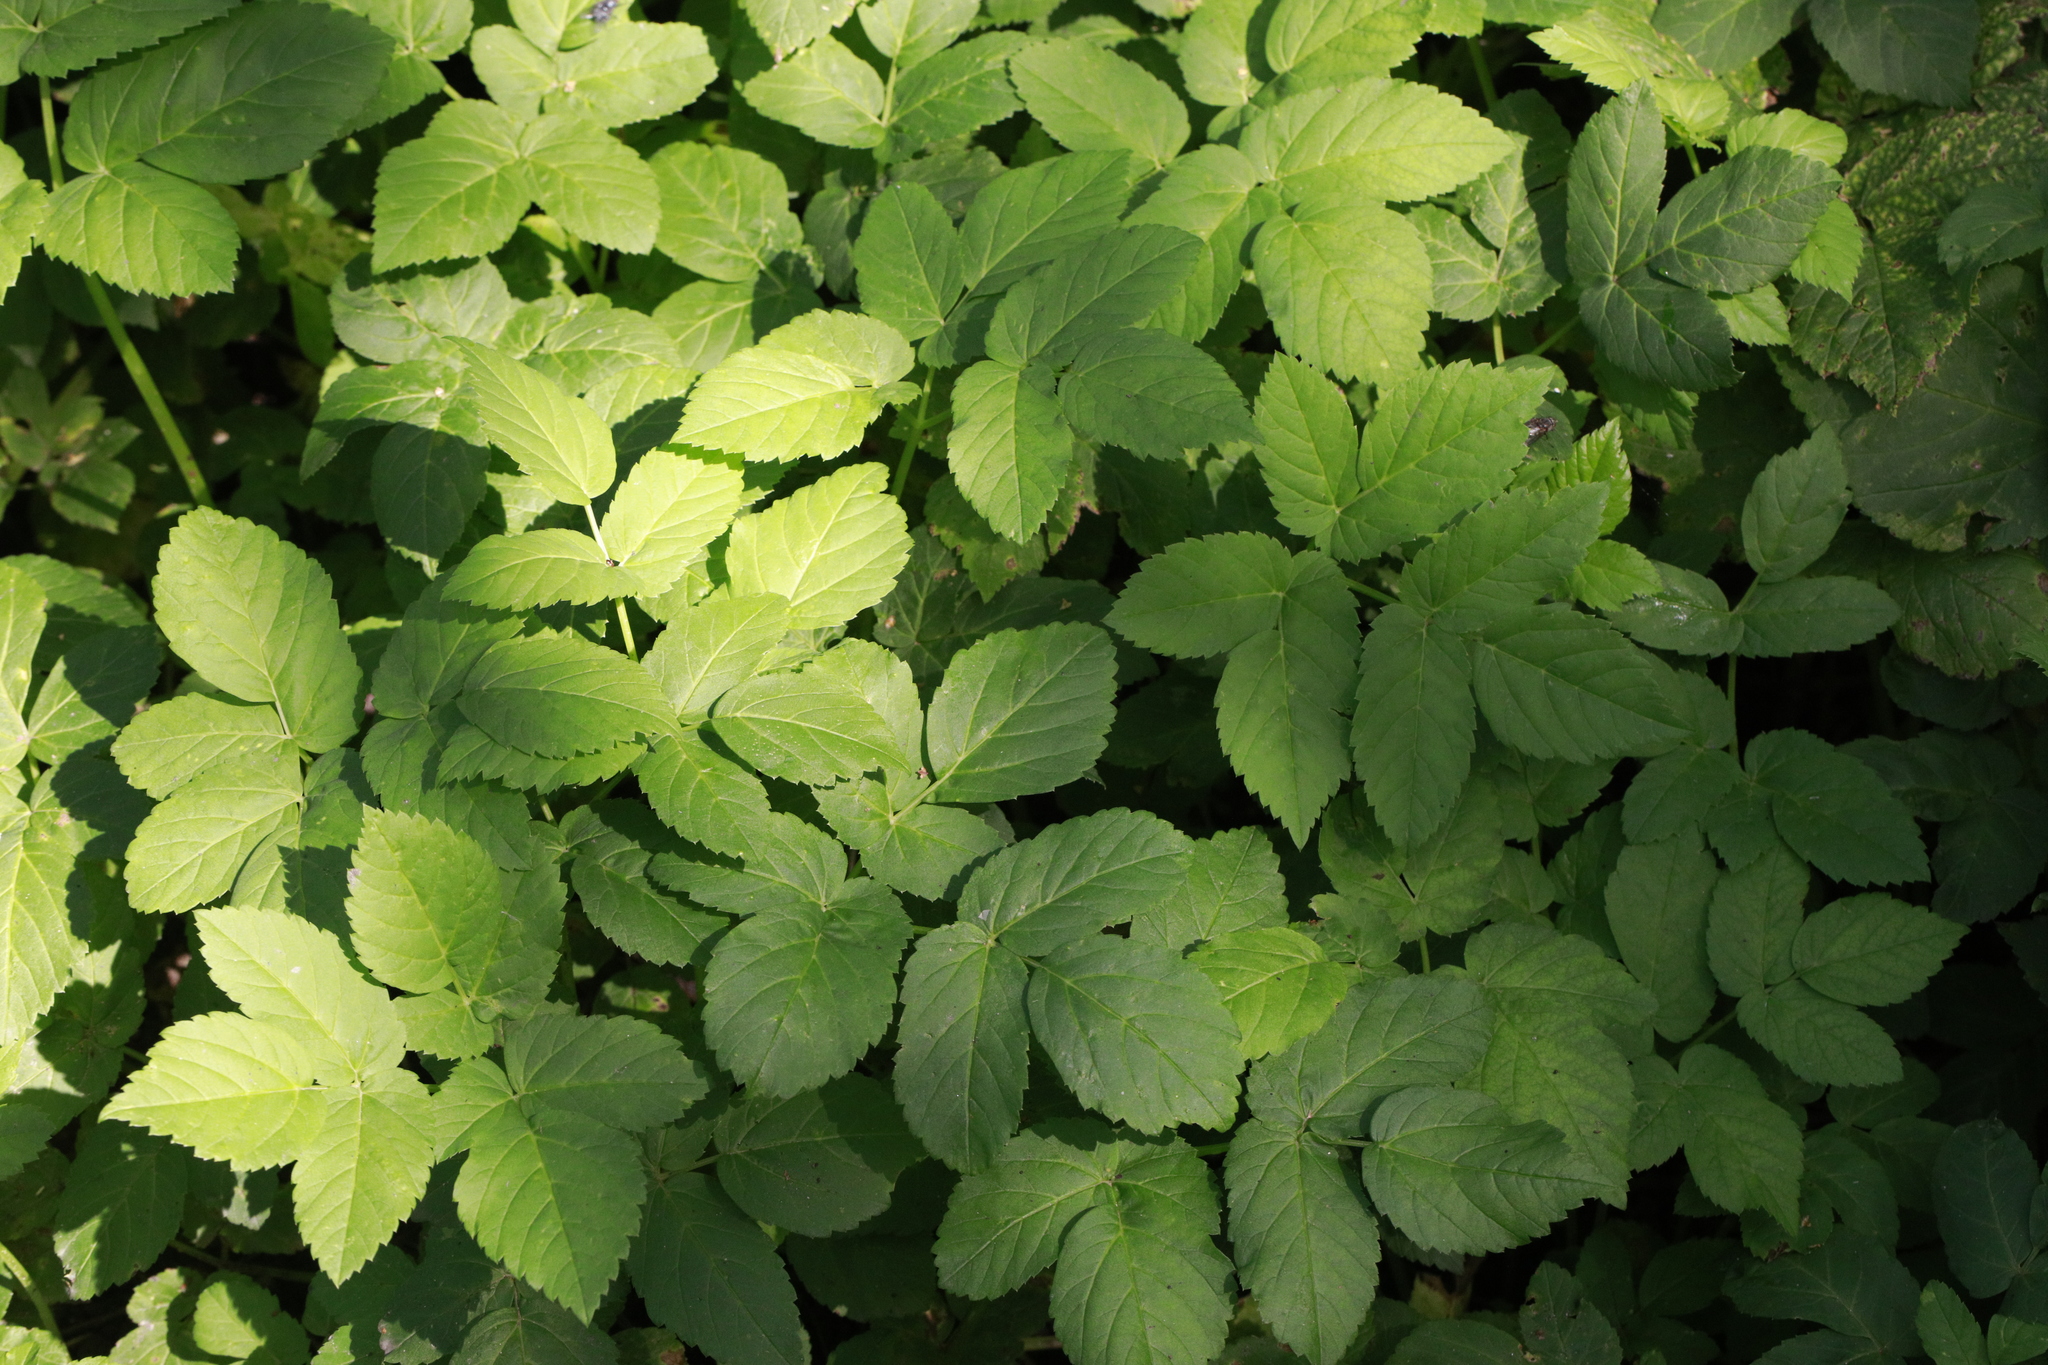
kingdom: Plantae
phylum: Tracheophyta
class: Magnoliopsida
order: Apiales
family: Apiaceae
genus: Aegopodium
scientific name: Aegopodium podagraria
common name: Ground-elder
